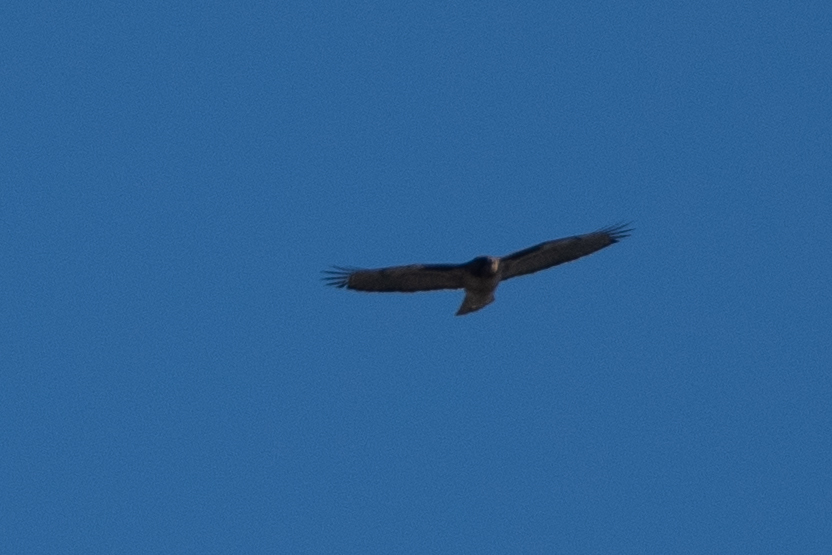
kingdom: Animalia
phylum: Chordata
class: Aves
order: Accipitriformes
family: Accipitridae
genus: Buteo
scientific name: Buteo jamaicensis
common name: Red-tailed hawk
